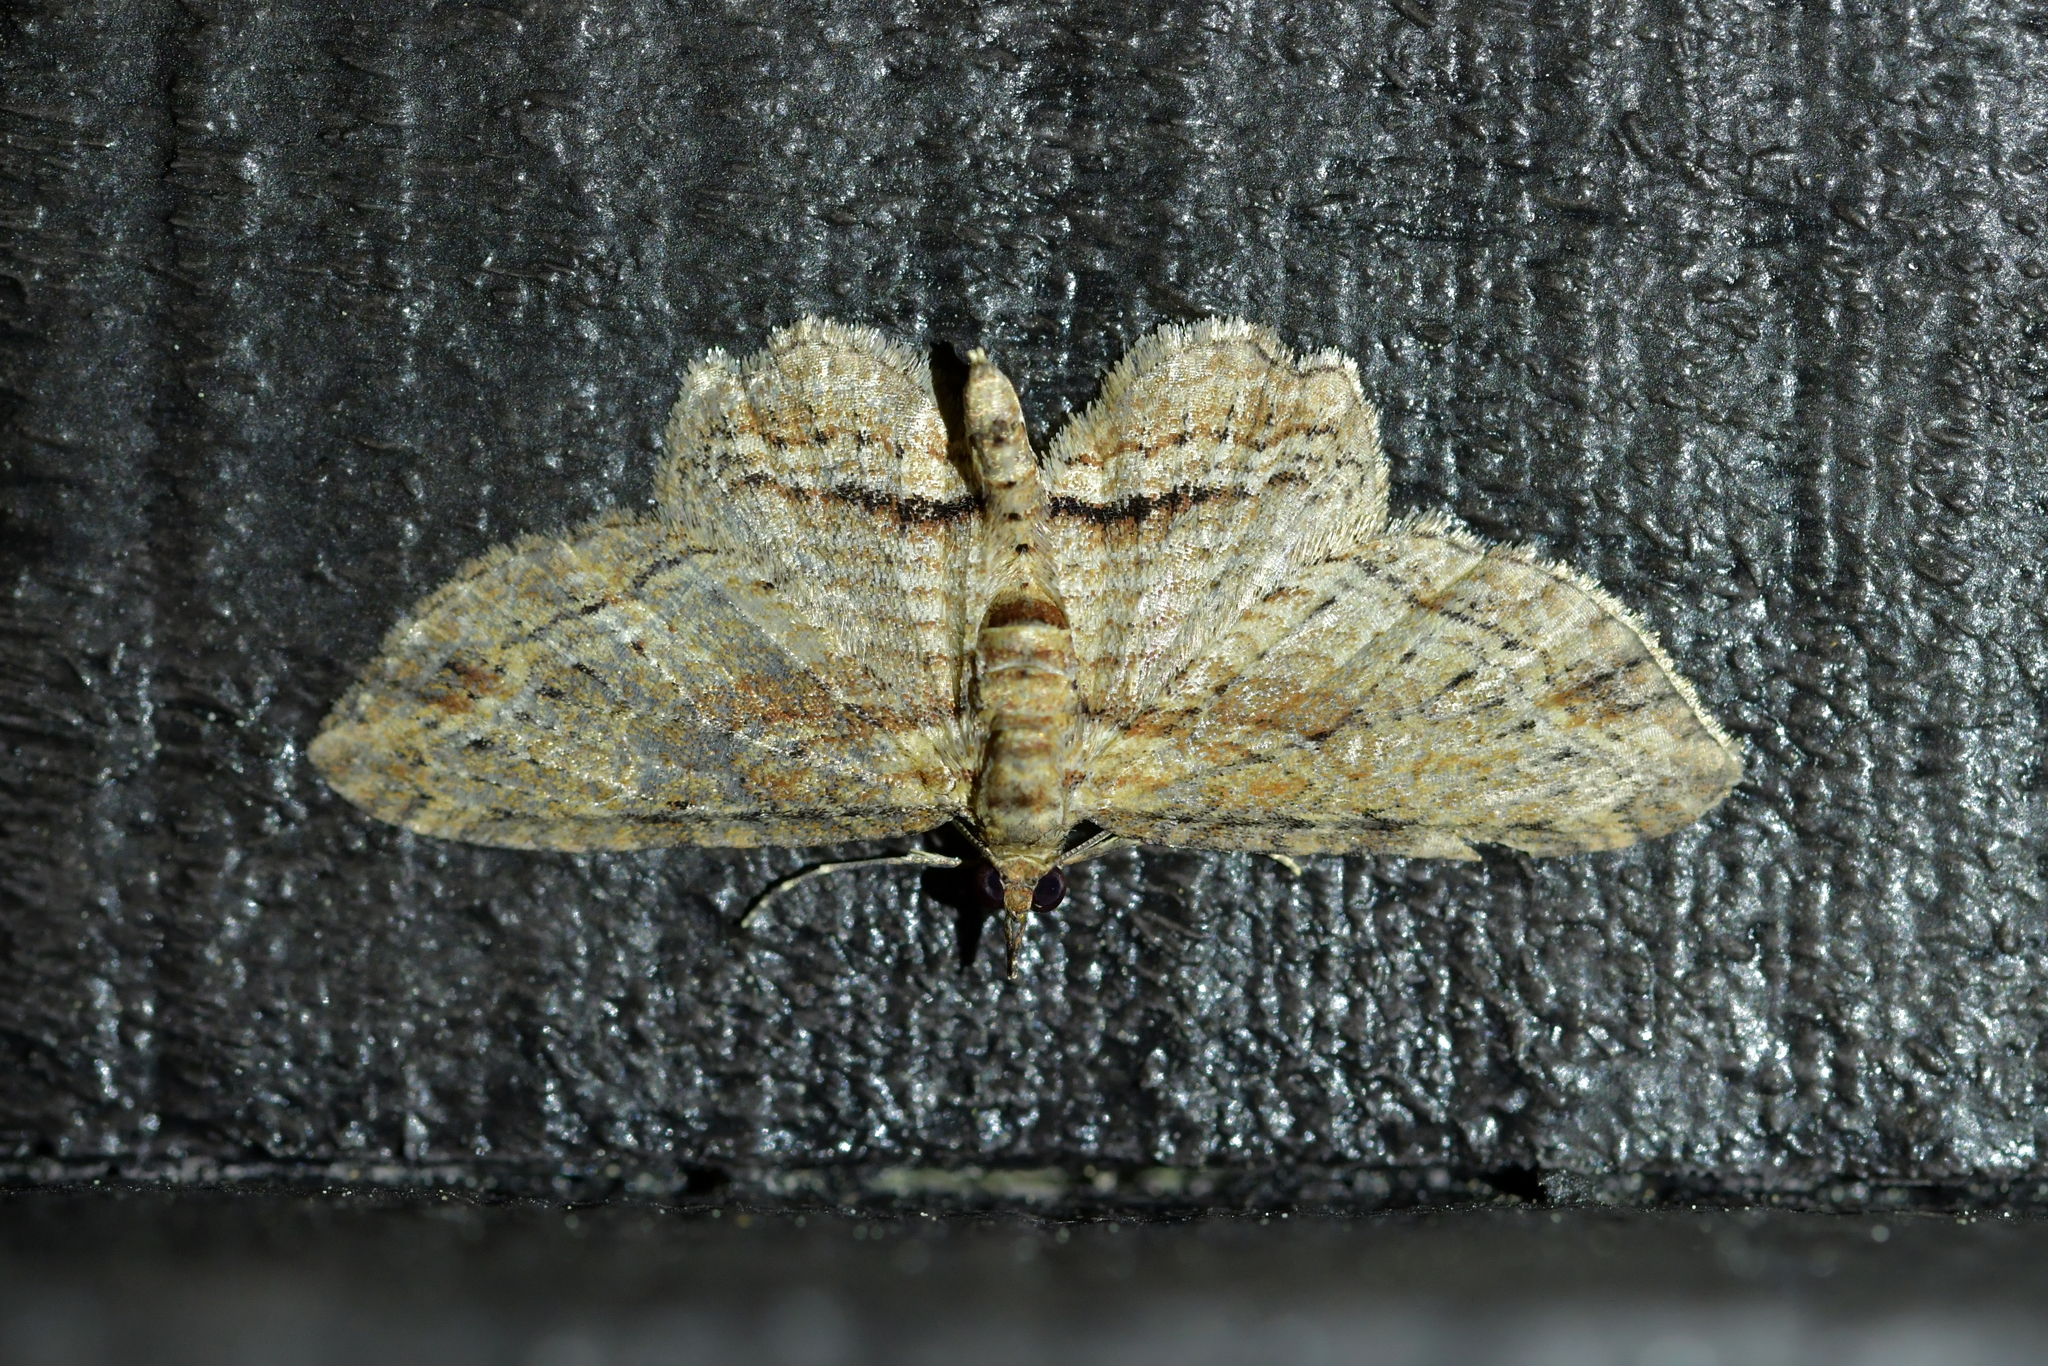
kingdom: Animalia
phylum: Arthropoda
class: Insecta
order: Lepidoptera
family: Geometridae
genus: Chloroclystis
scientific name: Chloroclystis filata
